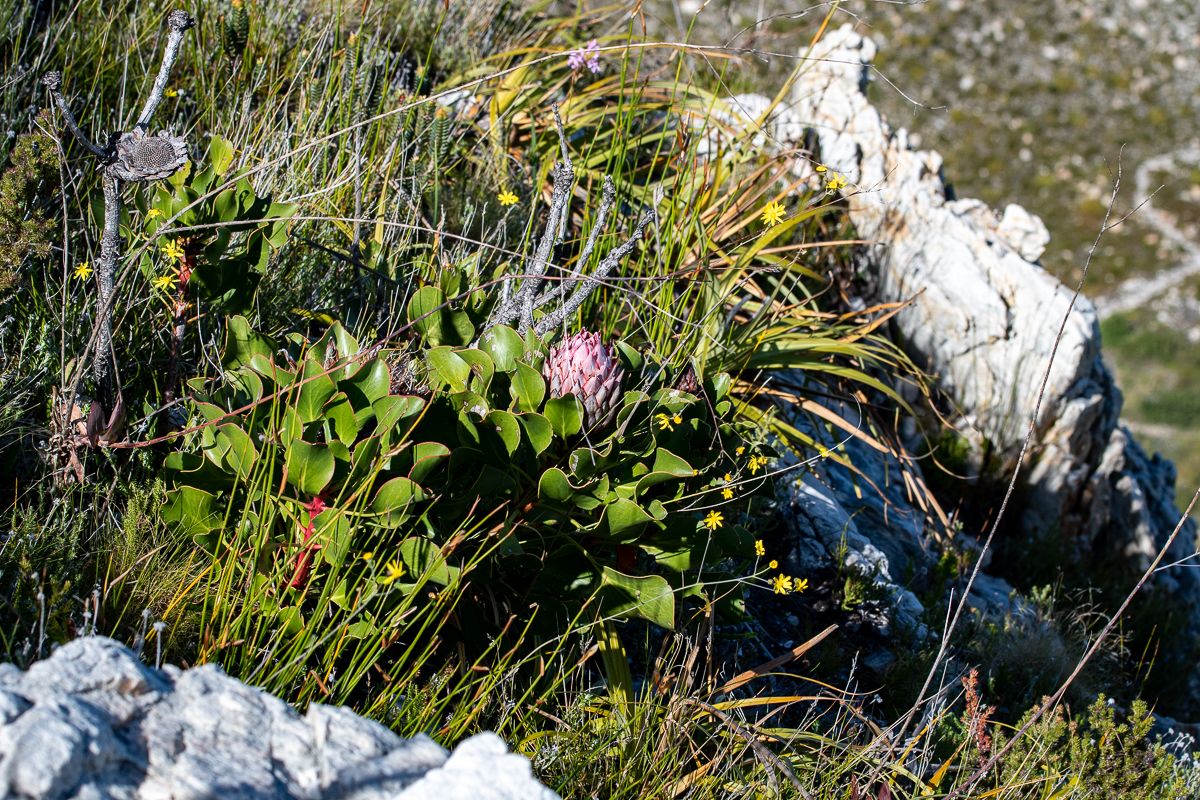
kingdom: Plantae
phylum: Tracheophyta
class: Magnoliopsida
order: Proteales
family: Proteaceae
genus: Protea
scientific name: Protea cynaroides
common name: King protea
